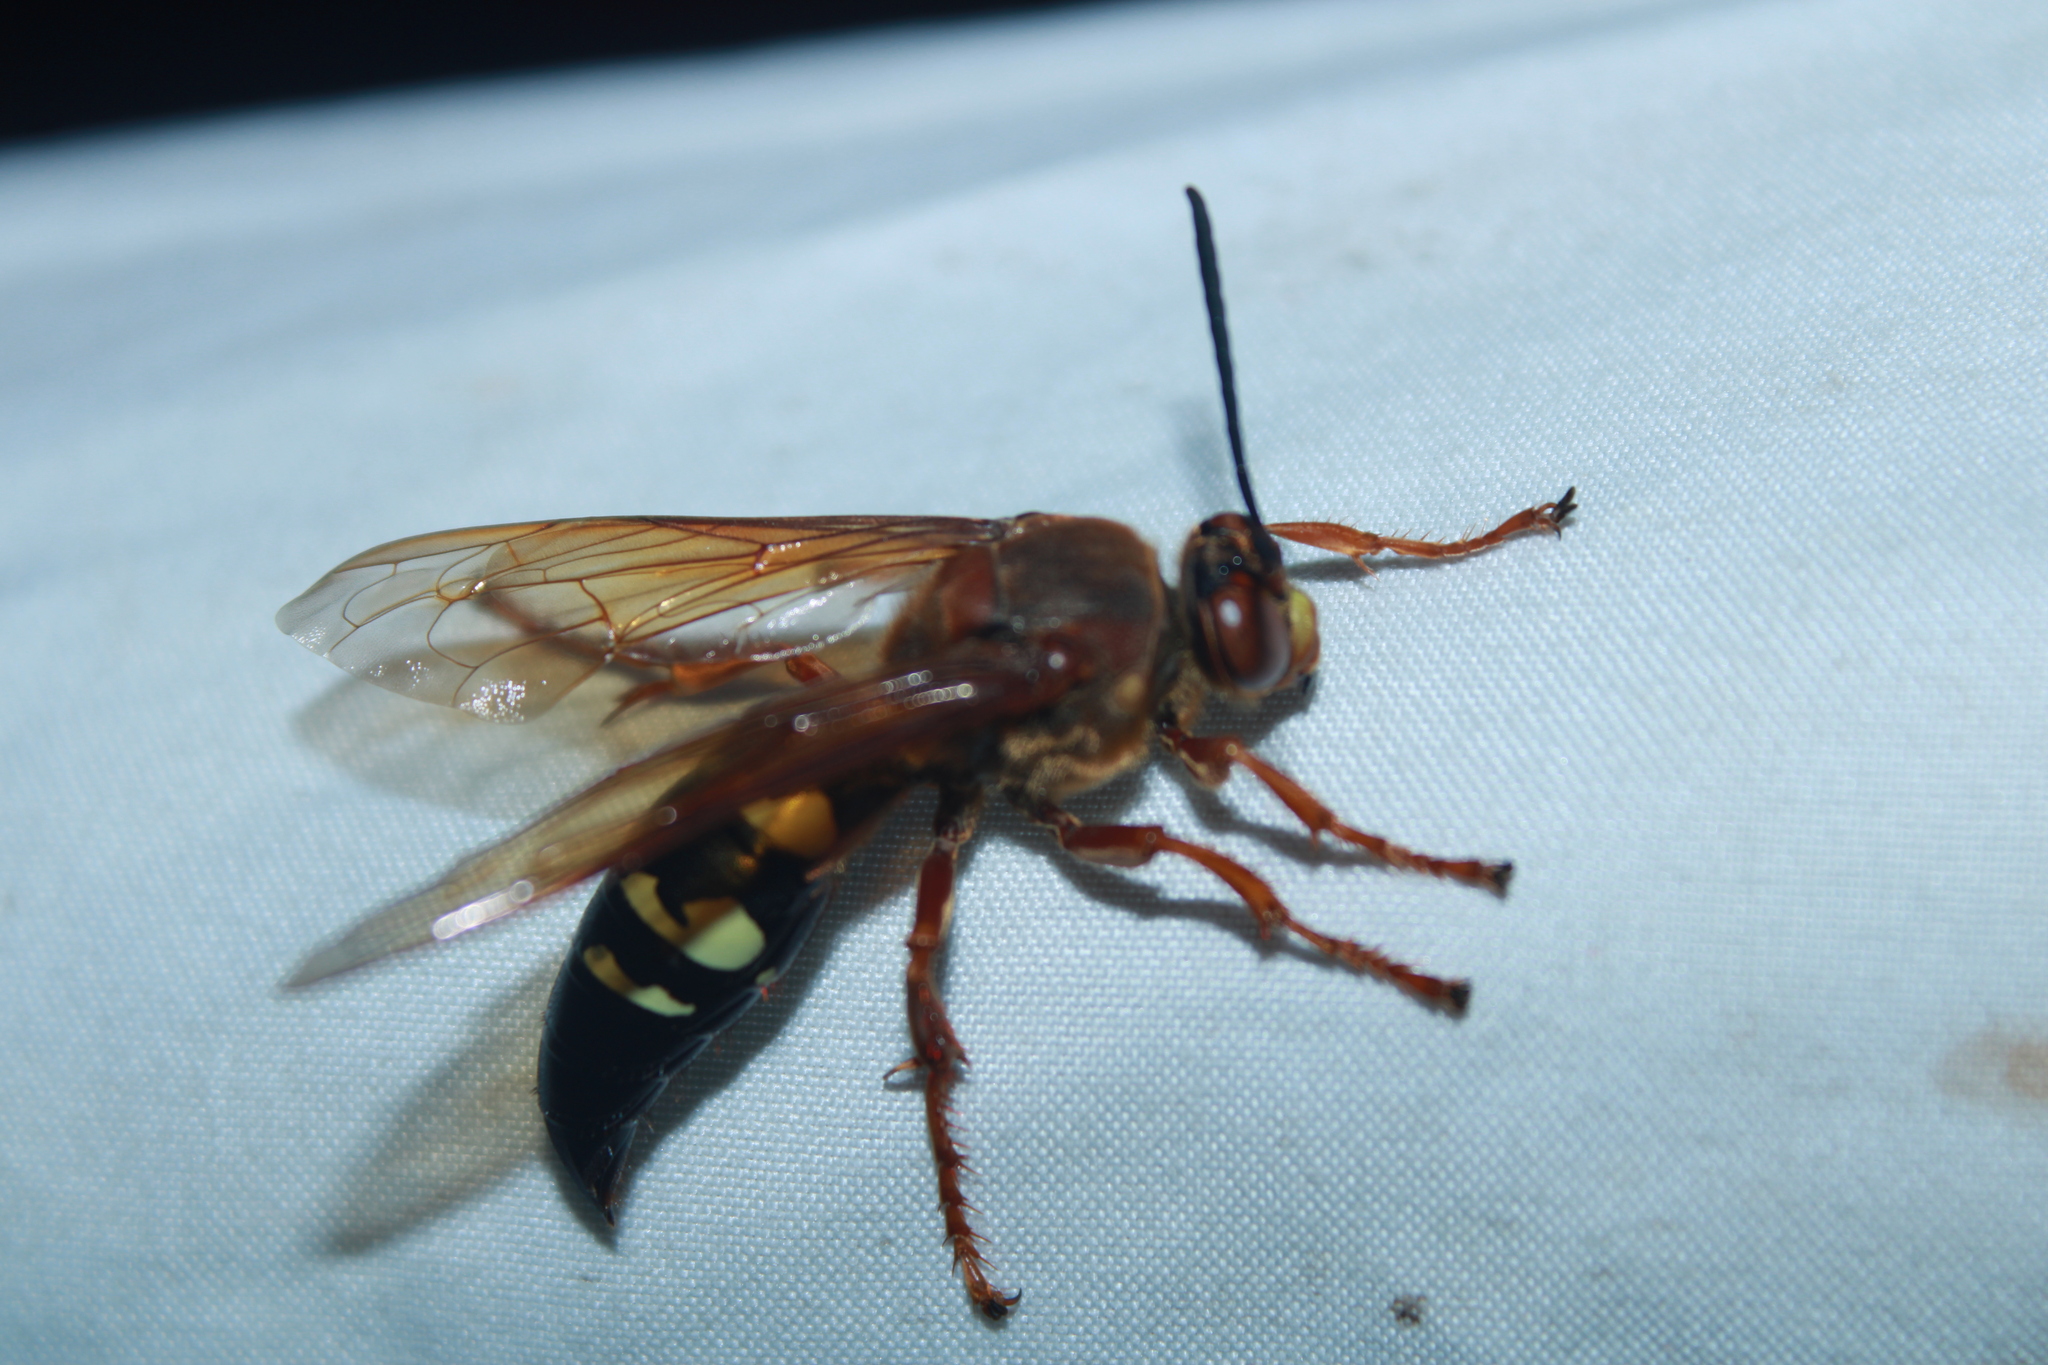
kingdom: Animalia
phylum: Arthropoda
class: Insecta
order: Hymenoptera
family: Crabronidae
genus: Sphecius
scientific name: Sphecius speciosus
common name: Cicada killer
